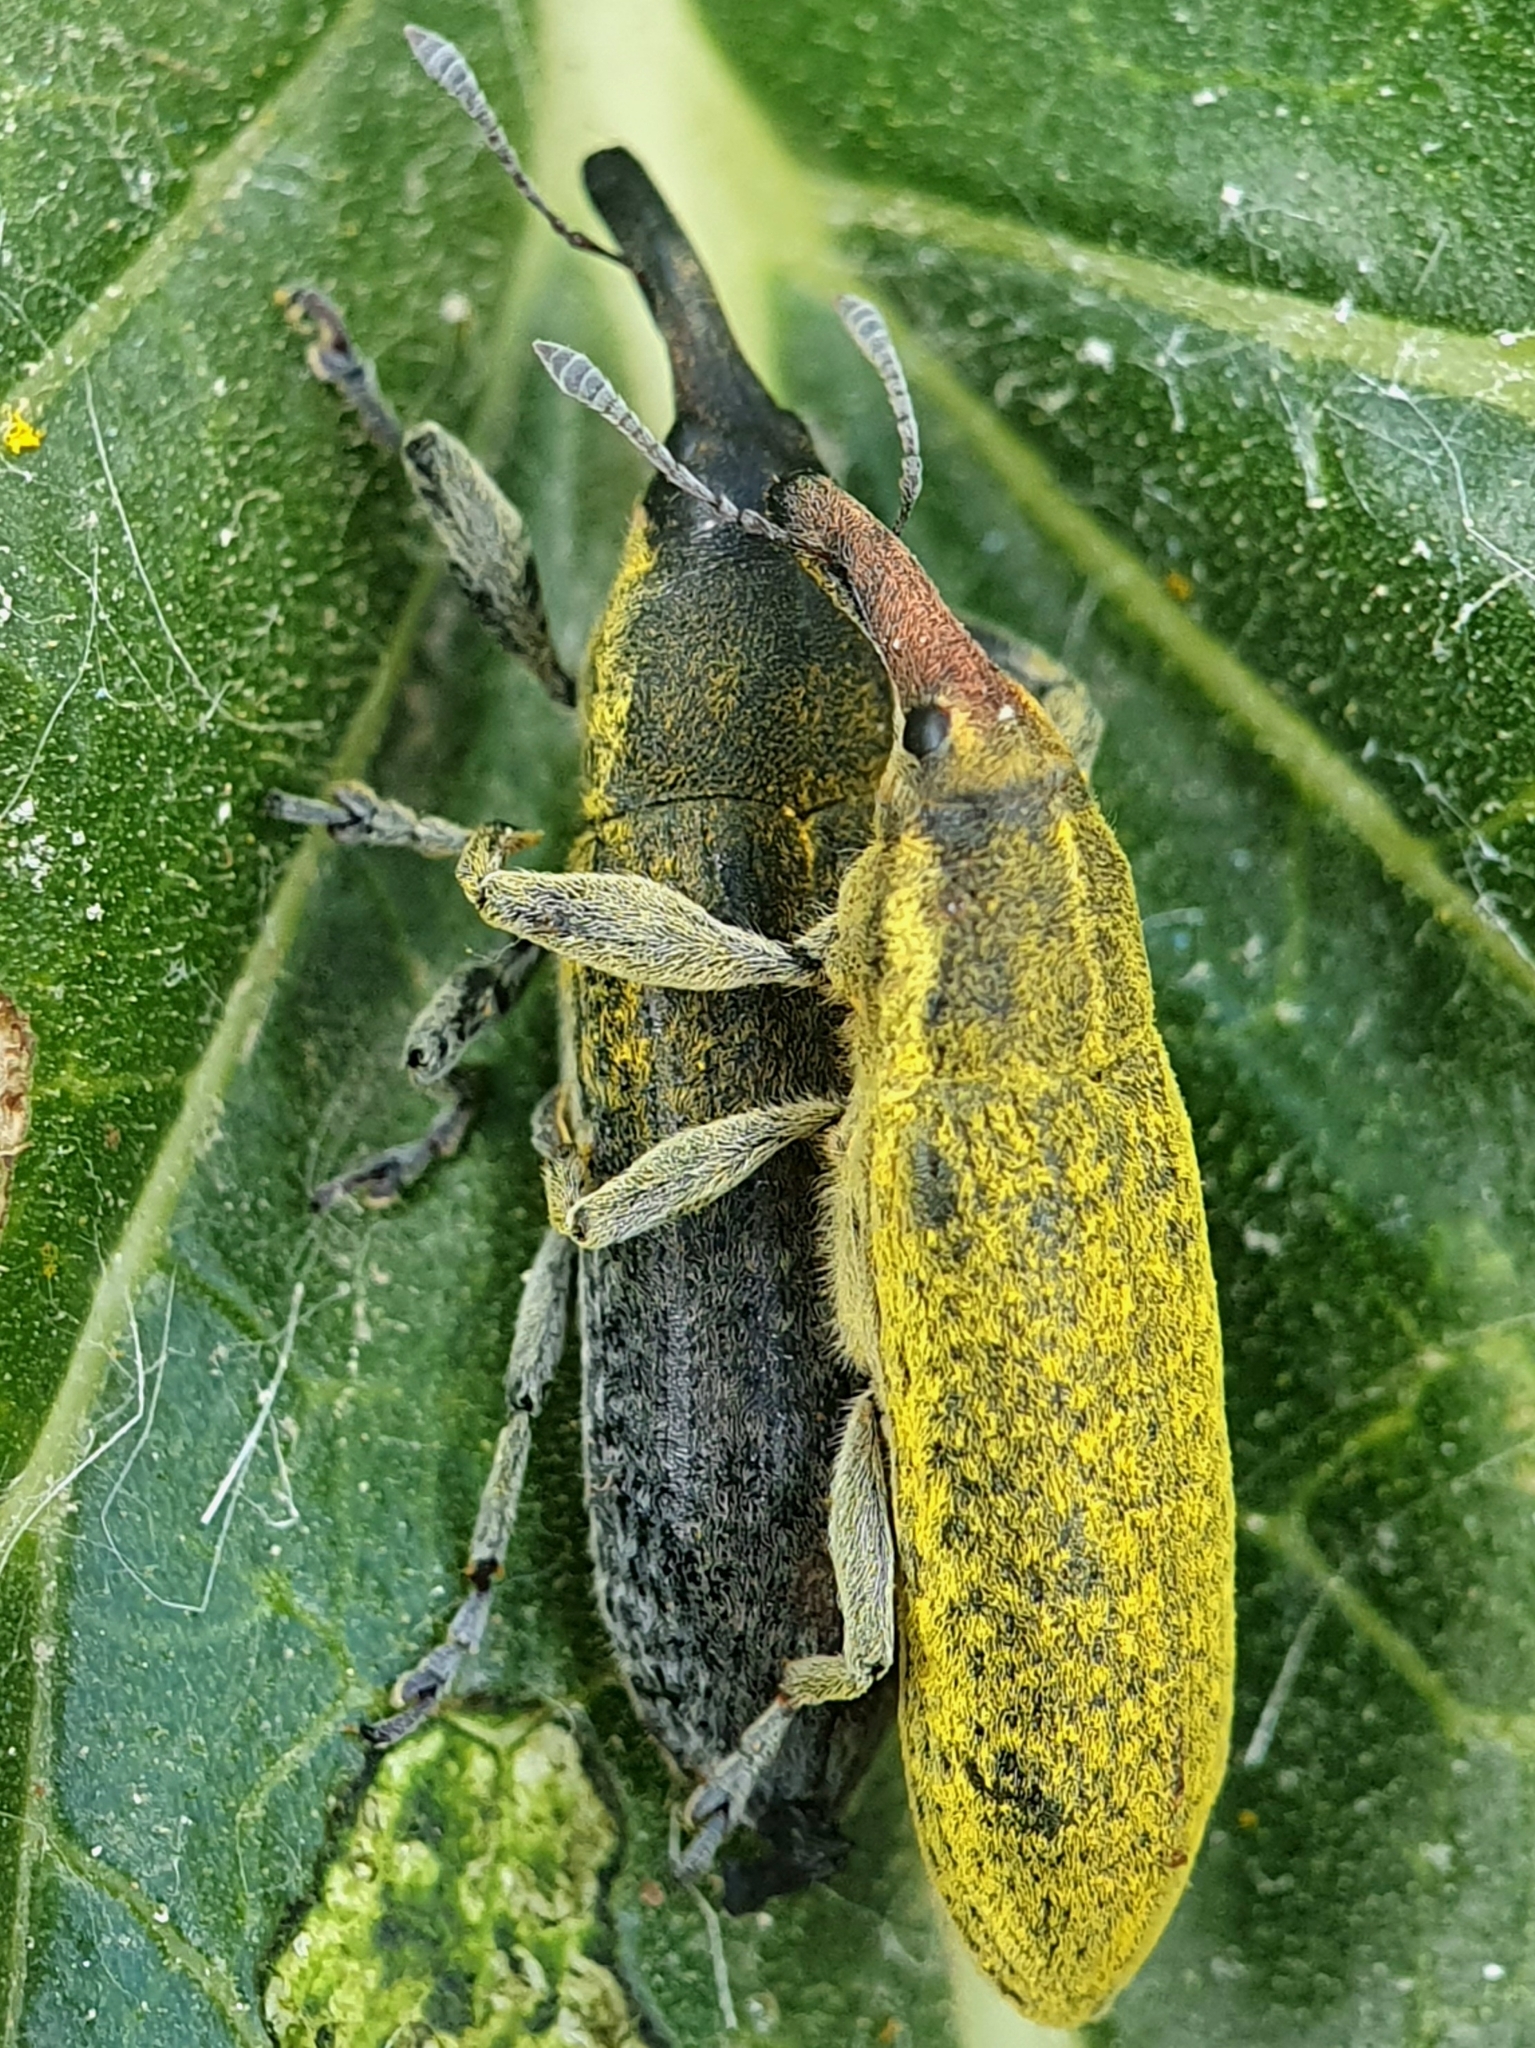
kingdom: Animalia
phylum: Arthropoda
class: Insecta
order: Coleoptera
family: Curculionidae
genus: Lixus
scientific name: Lixus scolopax
